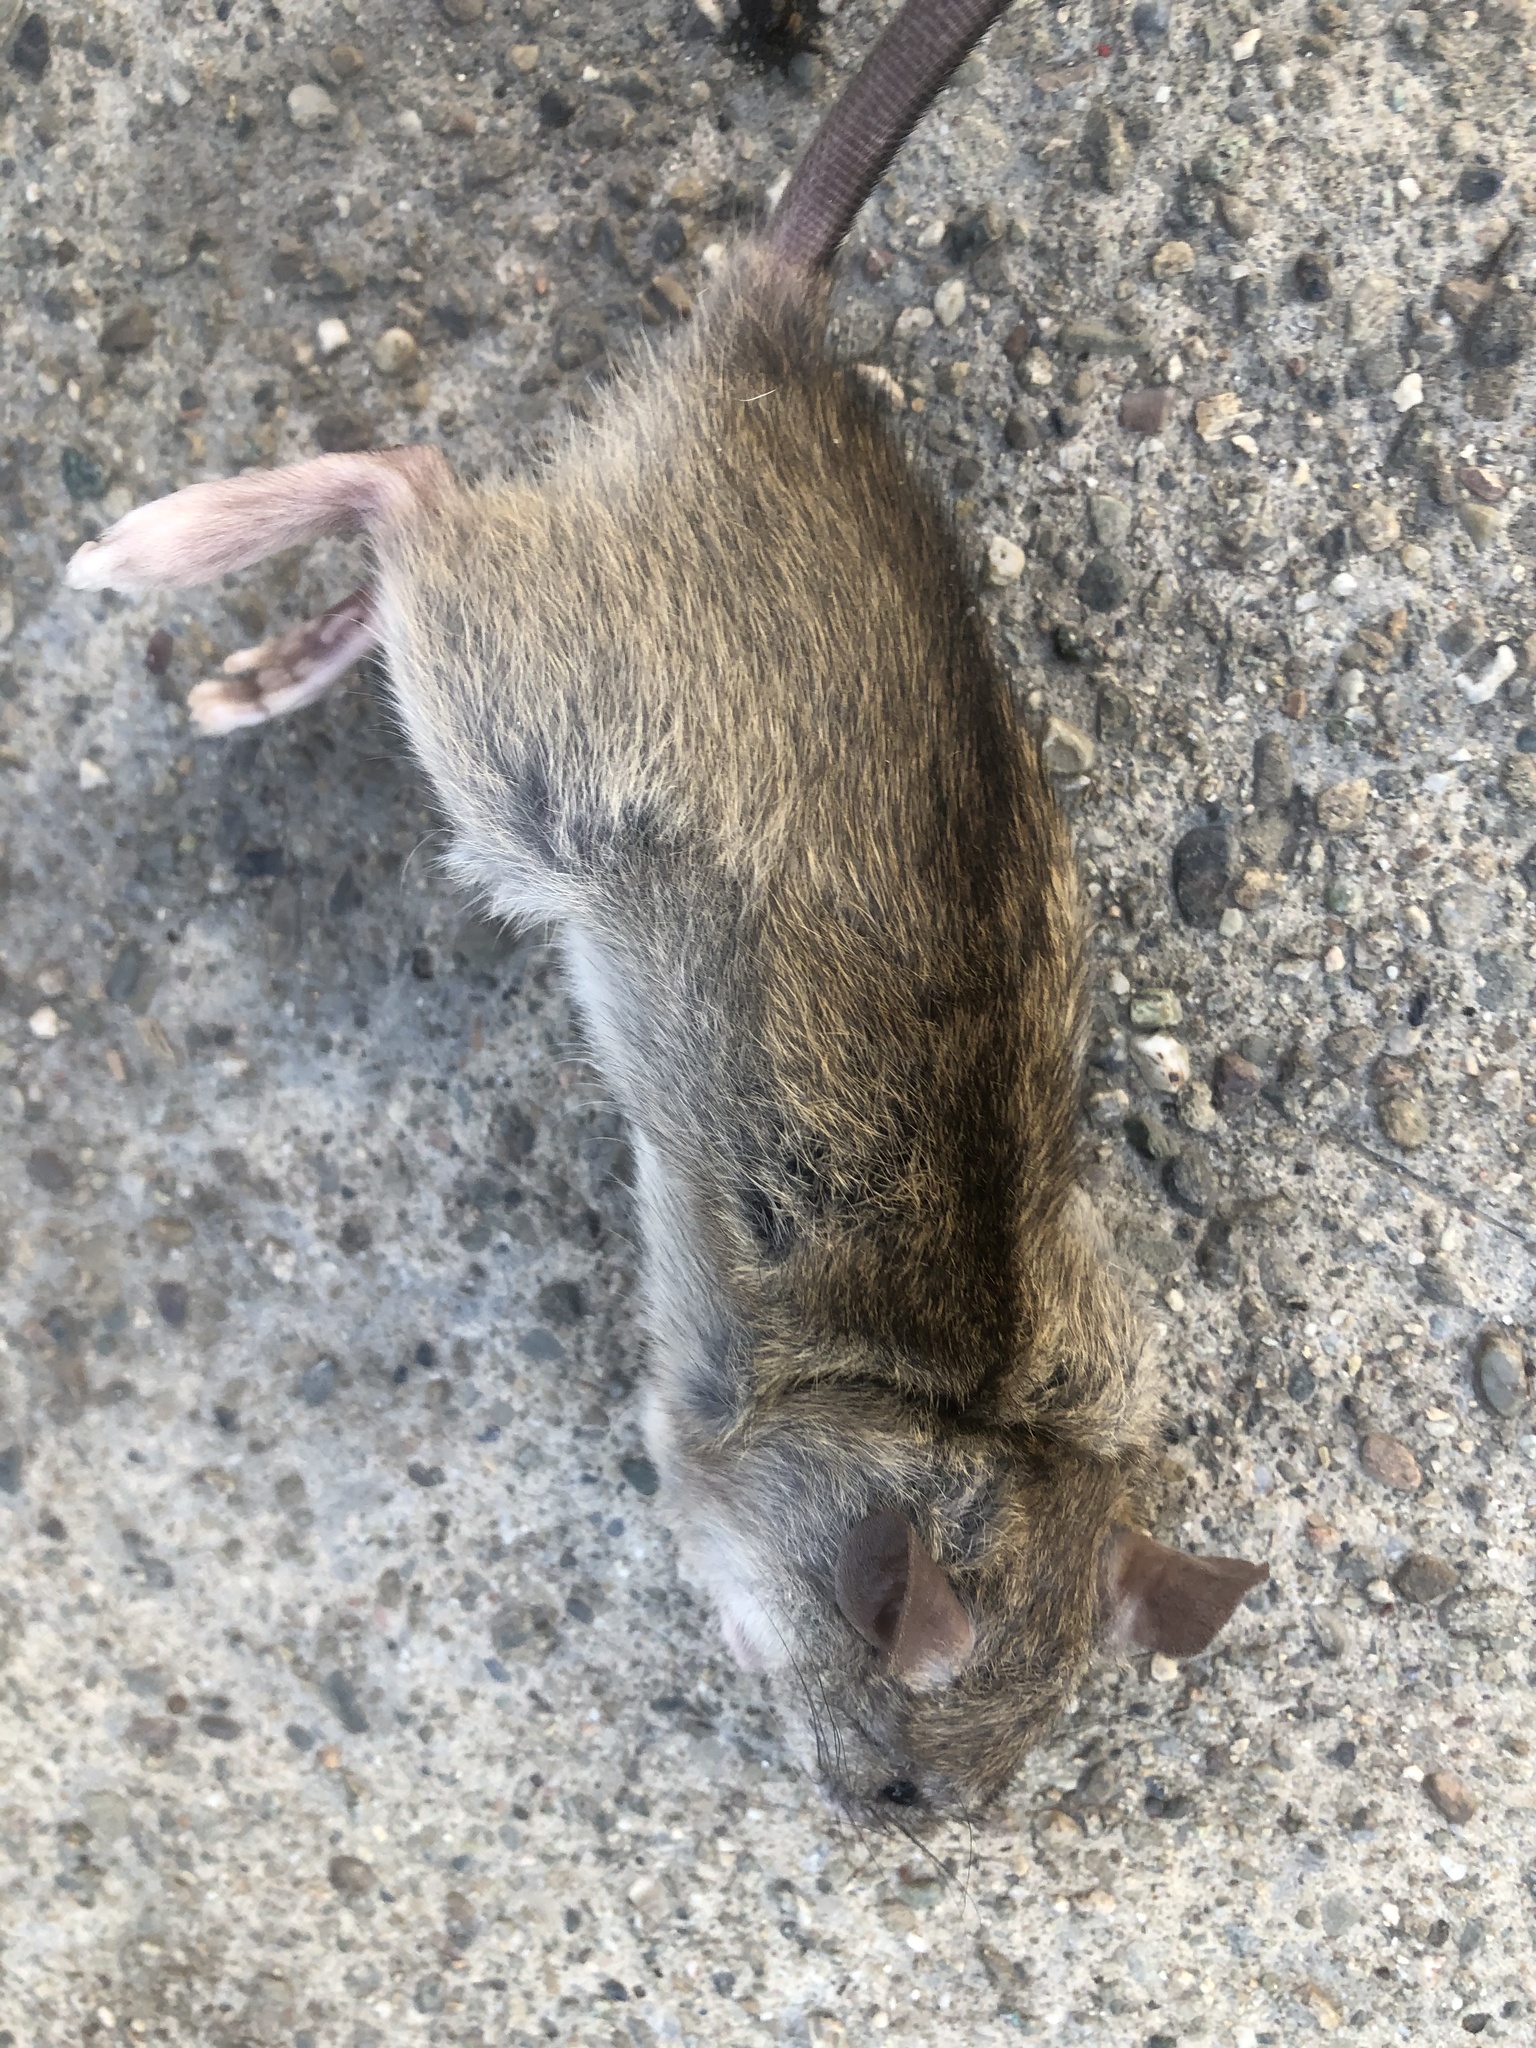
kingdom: Animalia
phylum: Chordata
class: Mammalia
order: Rodentia
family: Muridae
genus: Rattus
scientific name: Rattus rattus
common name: Black rat
